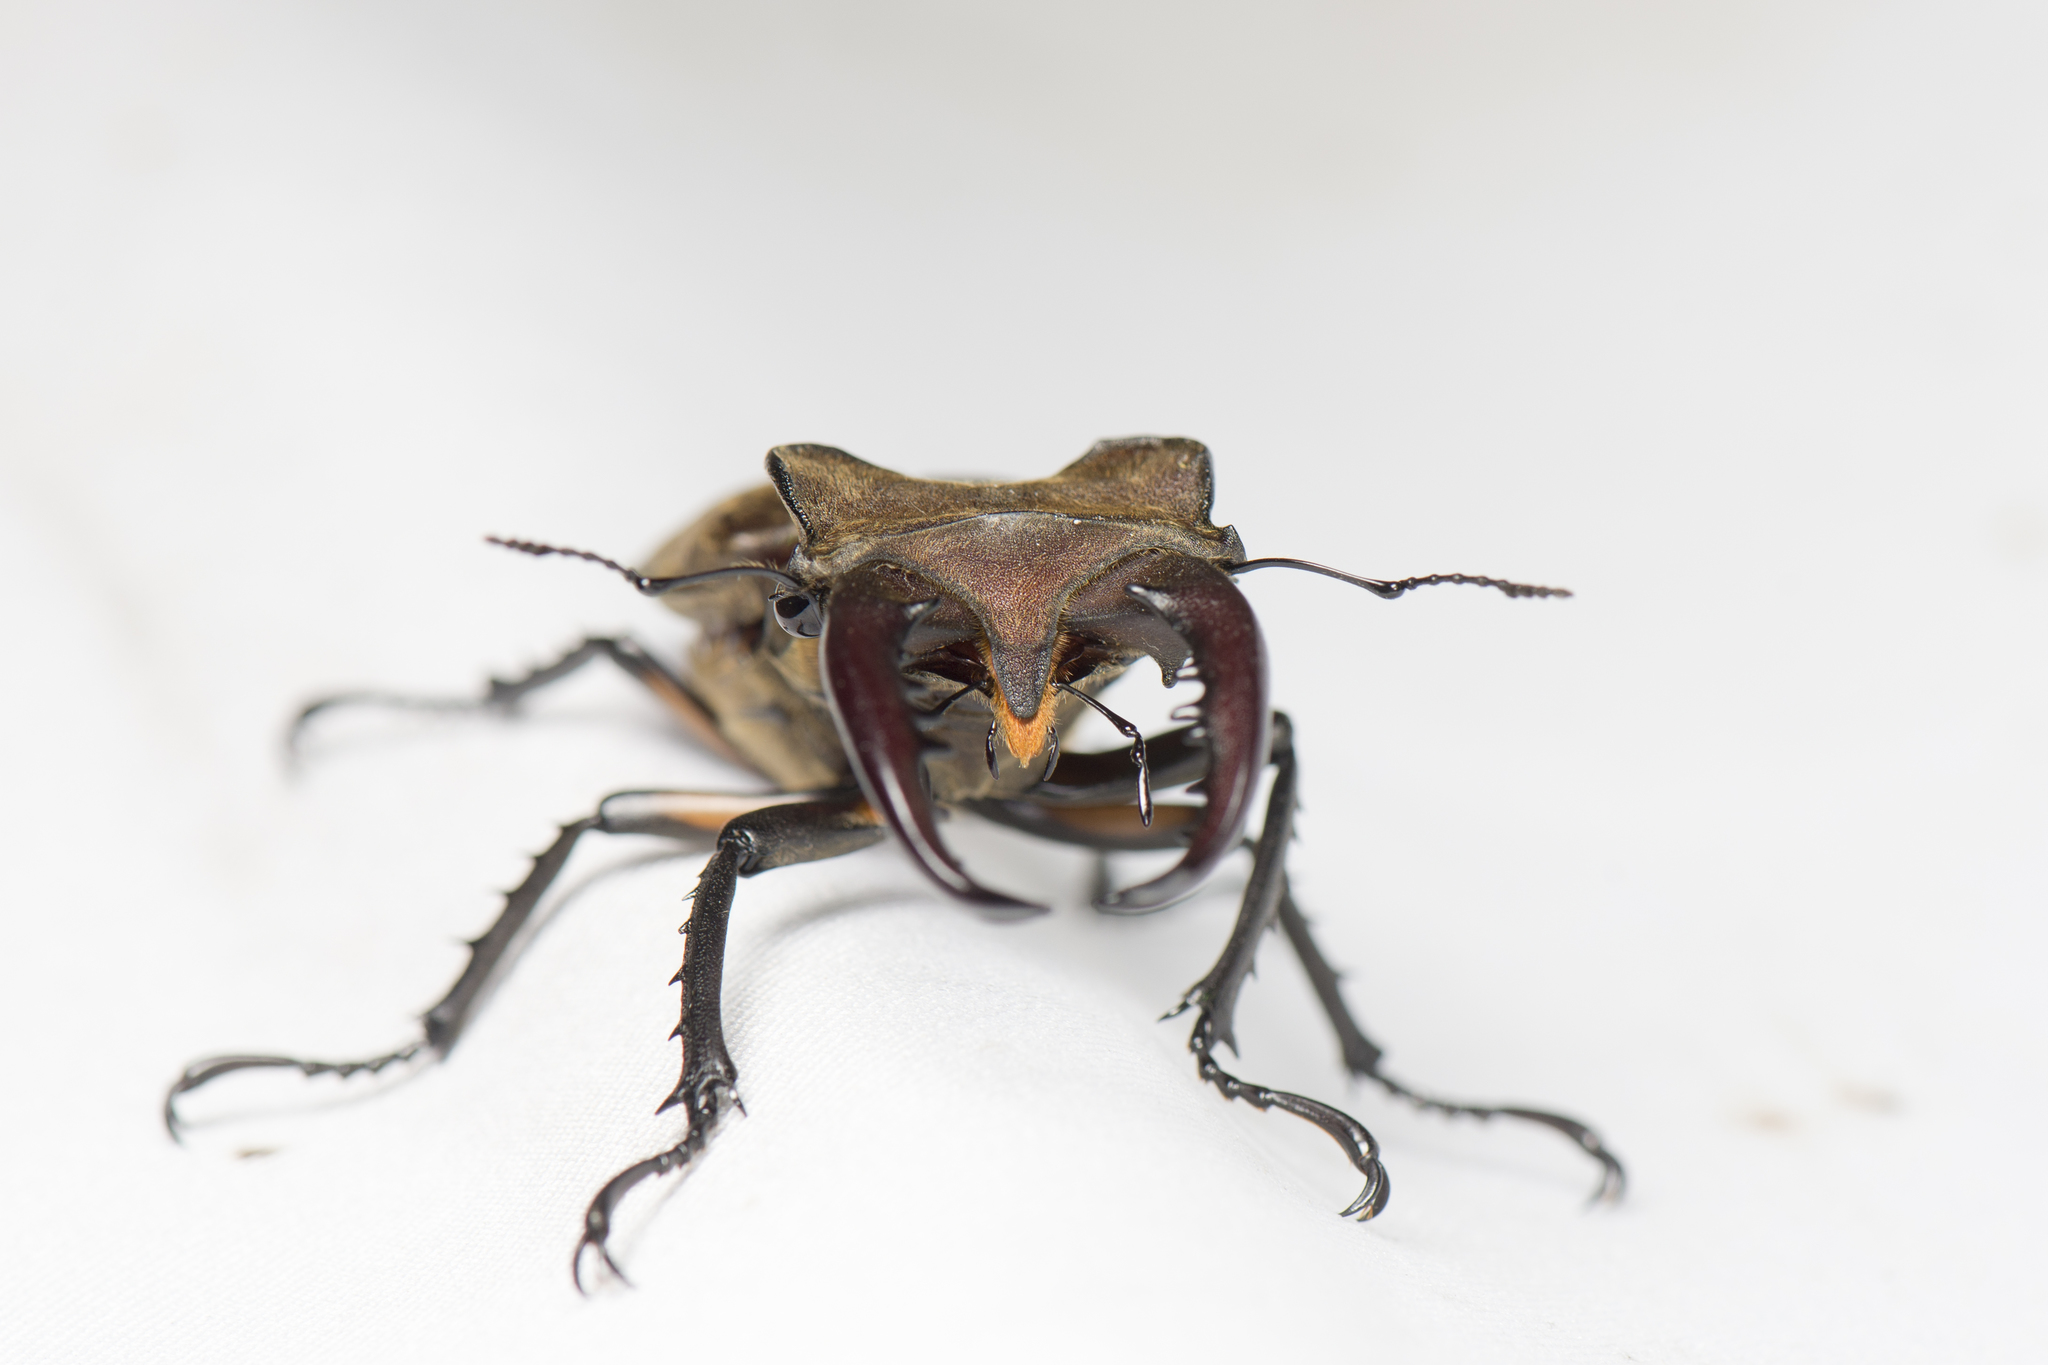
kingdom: Animalia
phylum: Arthropoda
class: Insecta
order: Coleoptera
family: Lucanidae
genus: Lucanus
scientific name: Lucanus maculifemoratus
